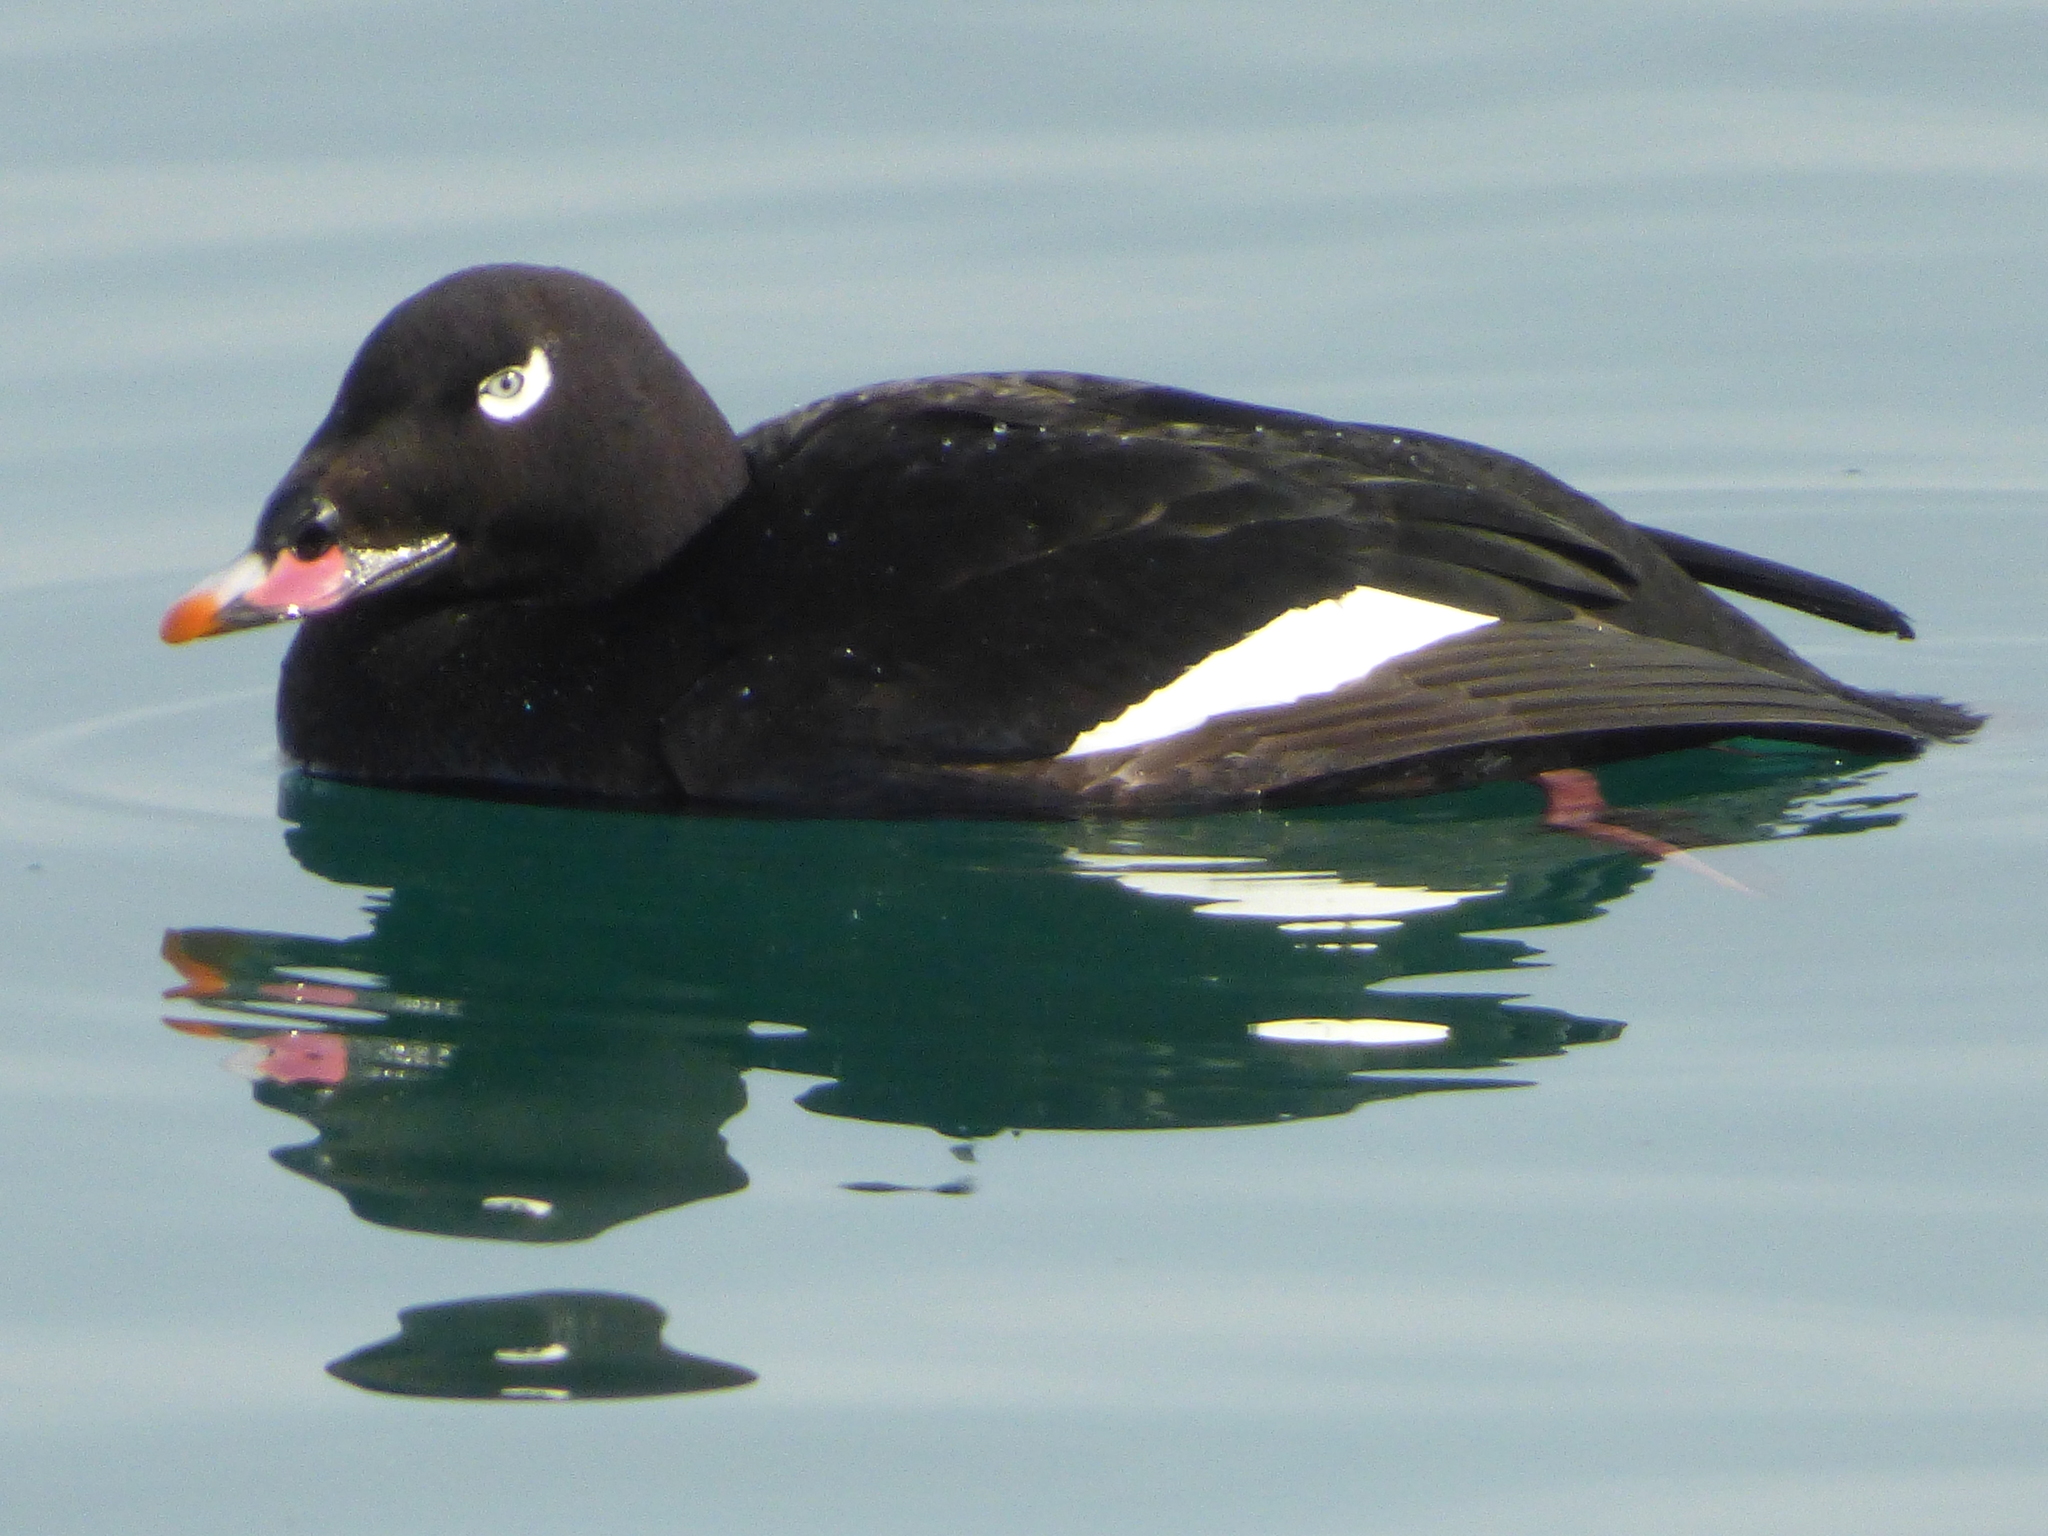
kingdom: Animalia
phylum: Chordata
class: Aves
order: Anseriformes
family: Anatidae
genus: Melanitta
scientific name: Melanitta deglandi
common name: White-winged scoter
